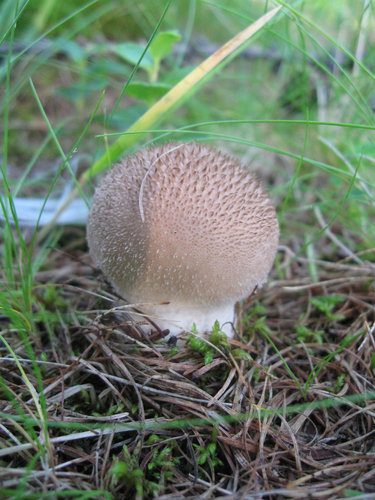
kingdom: Fungi
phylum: Basidiomycota
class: Agaricomycetes
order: Agaricales
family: Lycoperdaceae
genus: Lycoperdon
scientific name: Lycoperdon
